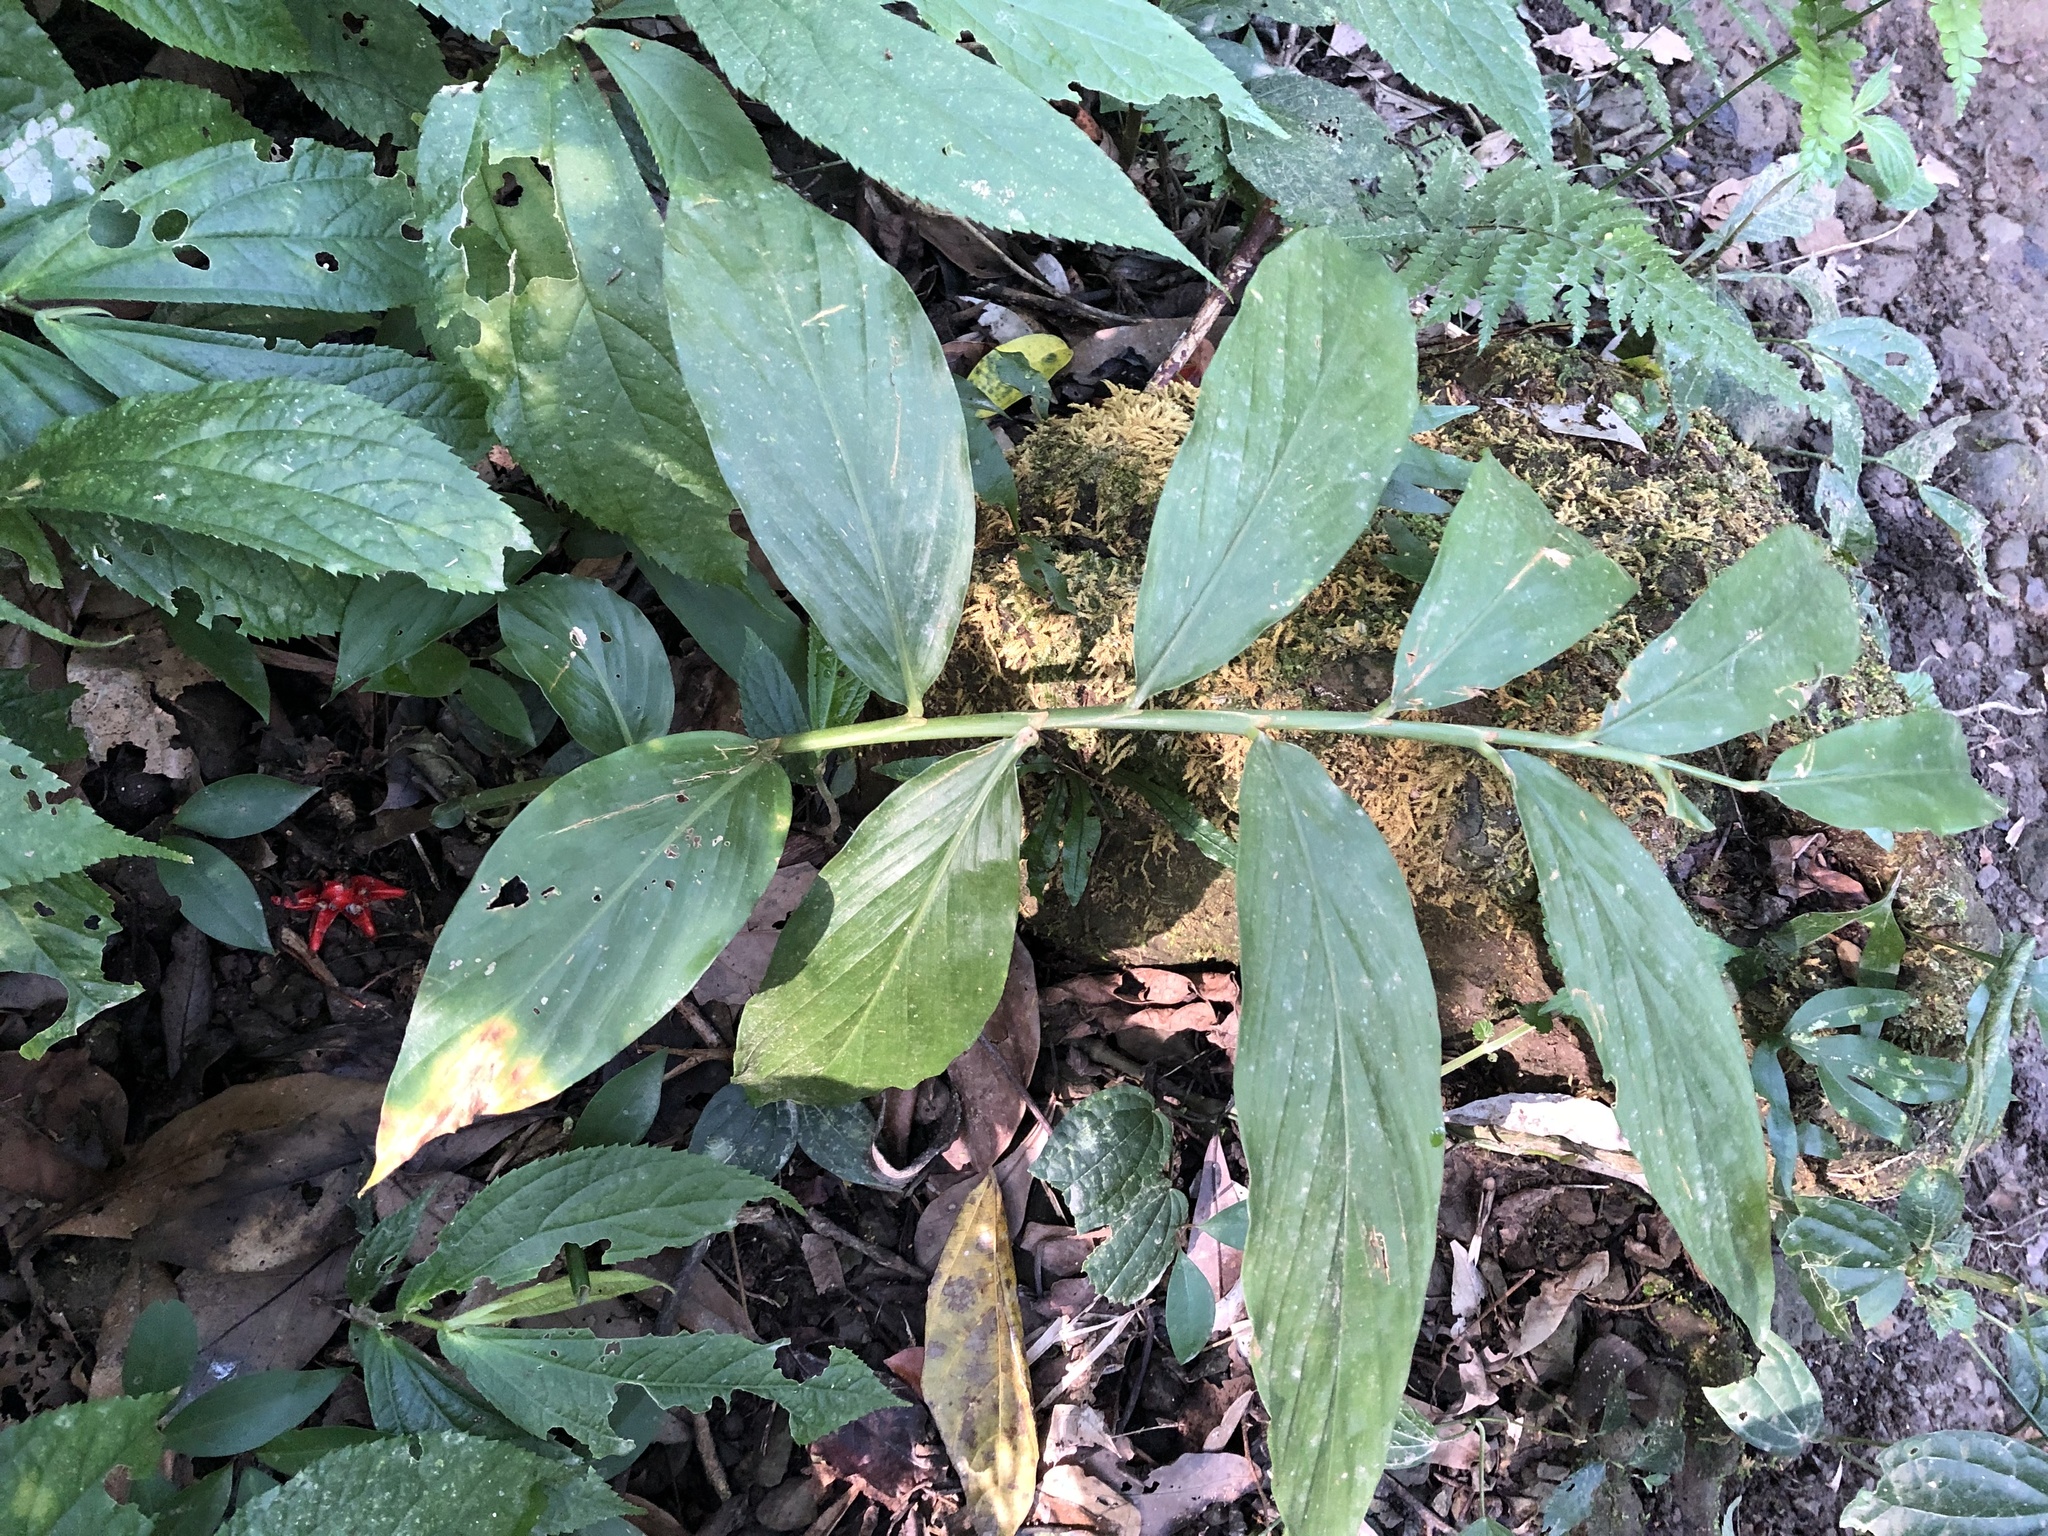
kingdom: Plantae
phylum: Tracheophyta
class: Liliopsida
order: Zingiberales
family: Zingiberaceae
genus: Zingiber
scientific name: Zingiber kawagoii
